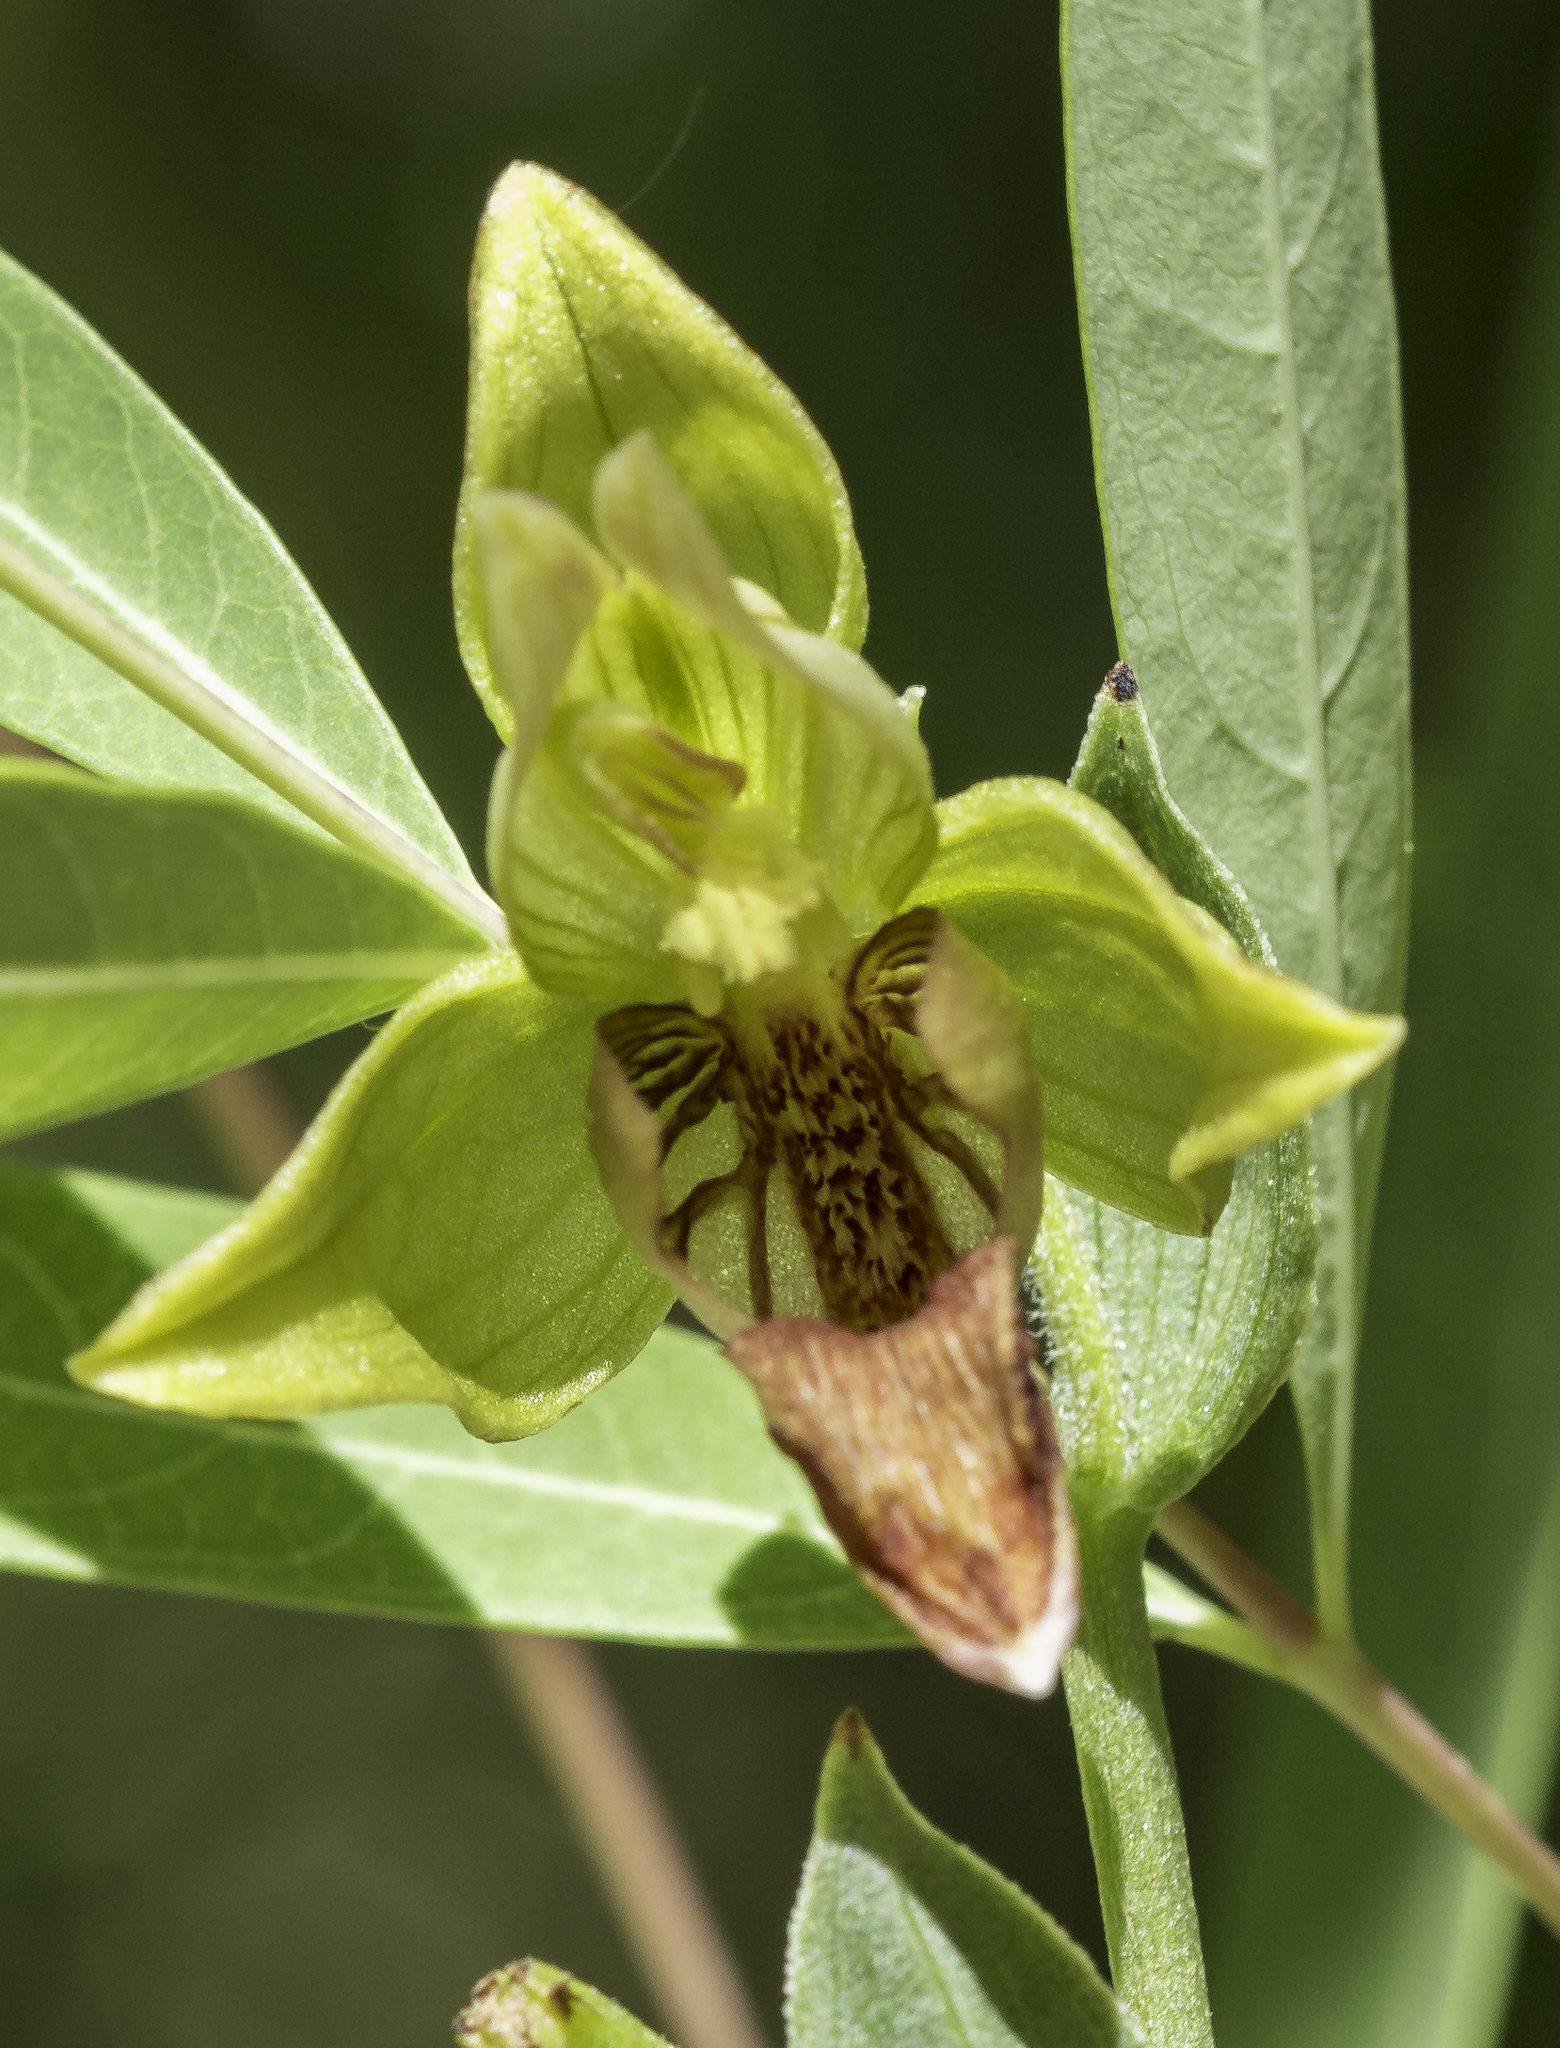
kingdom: Plantae
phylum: Tracheophyta
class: Liliopsida
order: Asparagales
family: Orchidaceae
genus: Epipactis
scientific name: Epipactis gigantea
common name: Chatterbox
